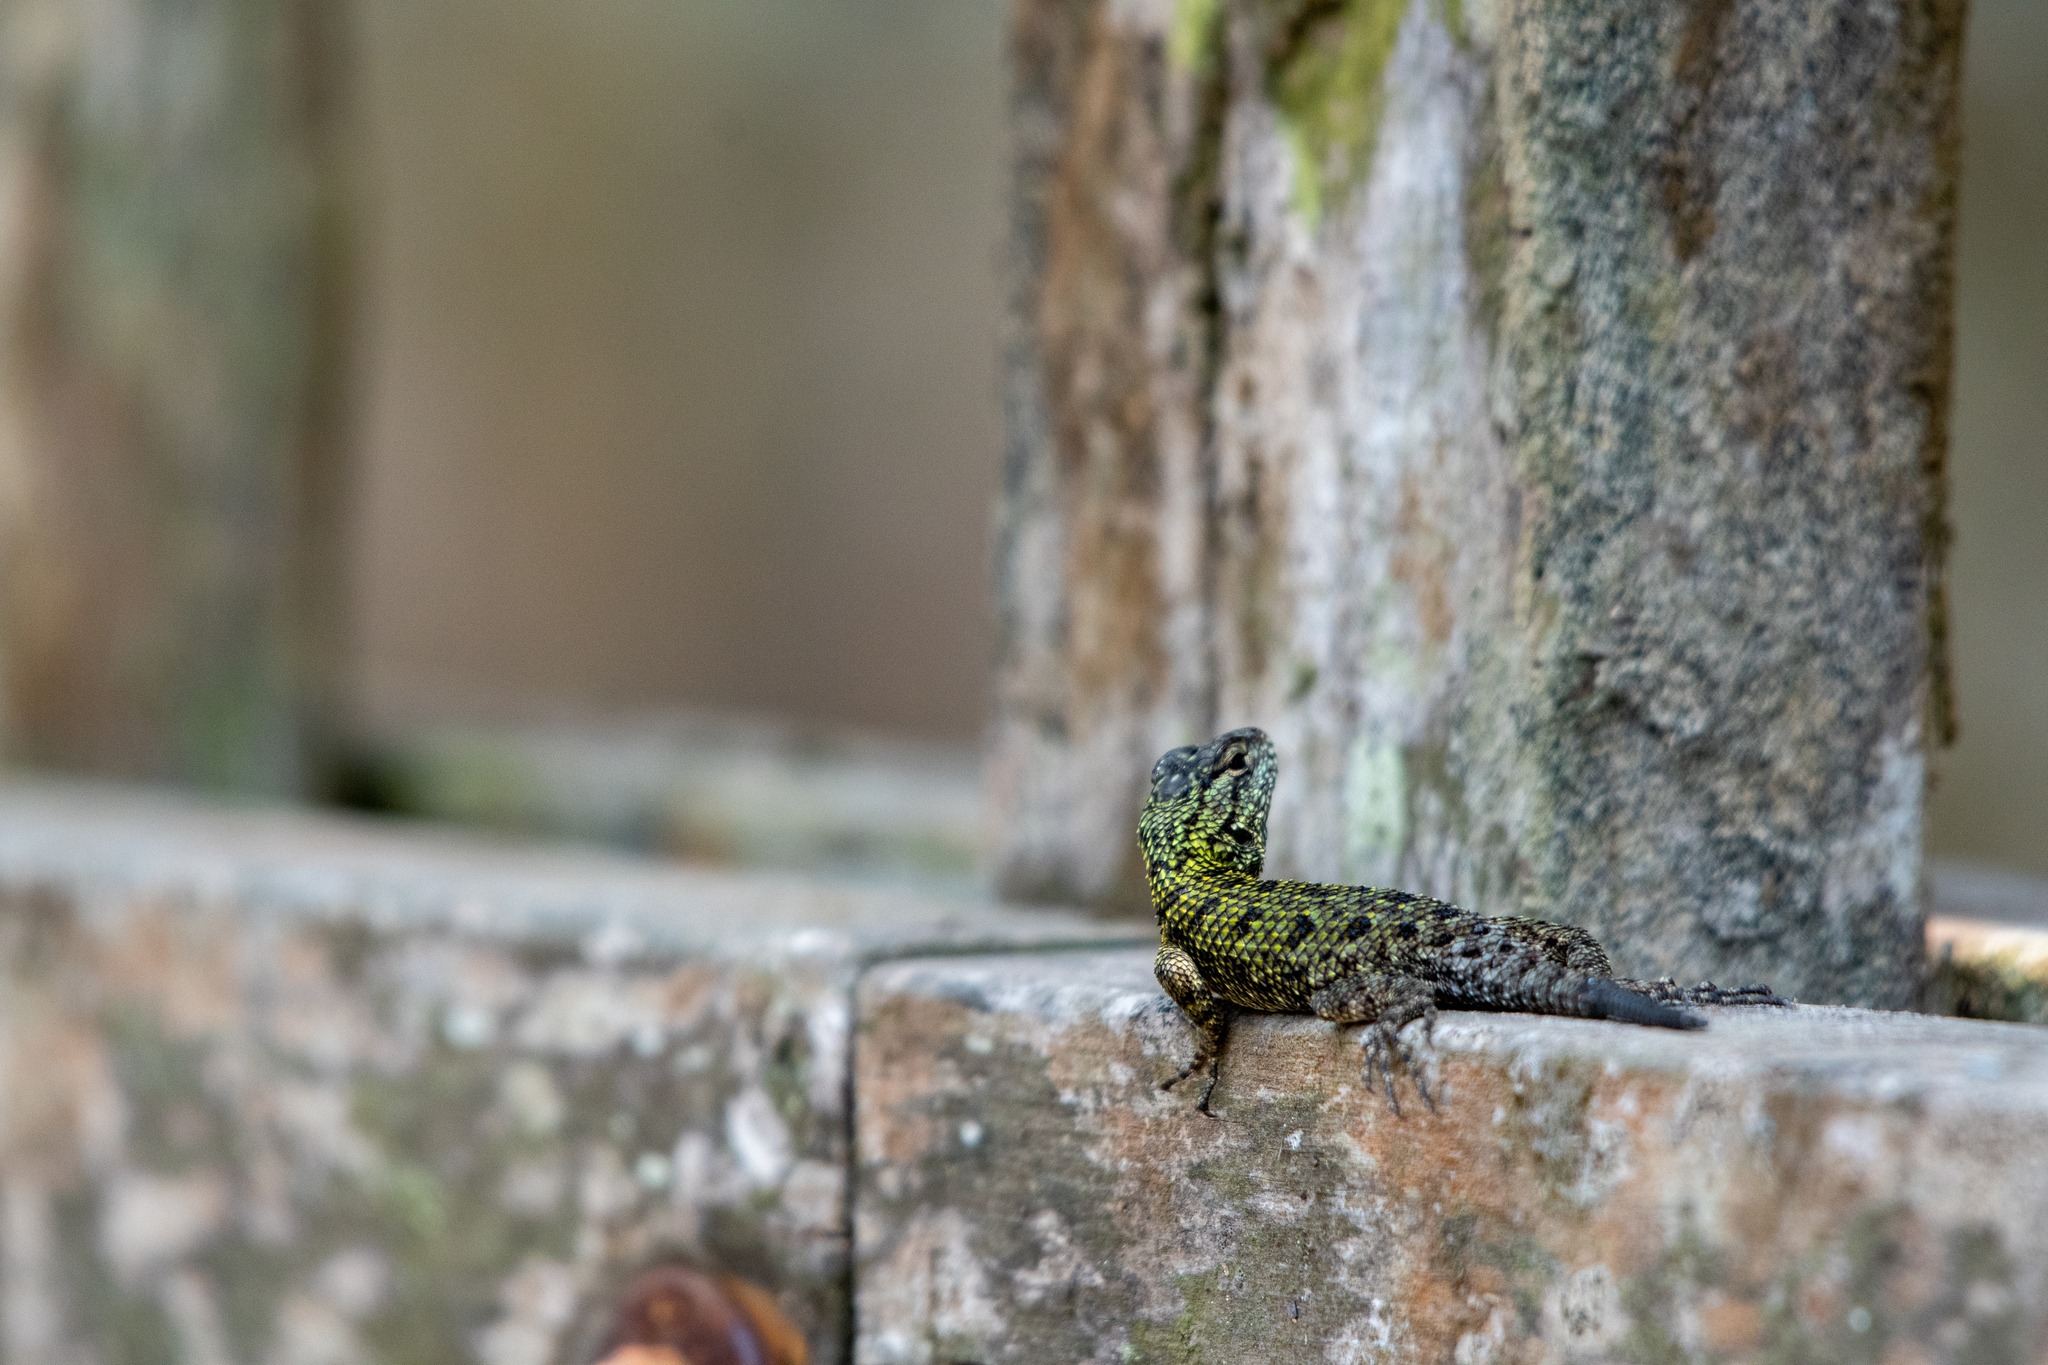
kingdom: Animalia
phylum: Chordata
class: Squamata
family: Phrynosomatidae
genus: Sceloporus
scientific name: Sceloporus esperanzae
